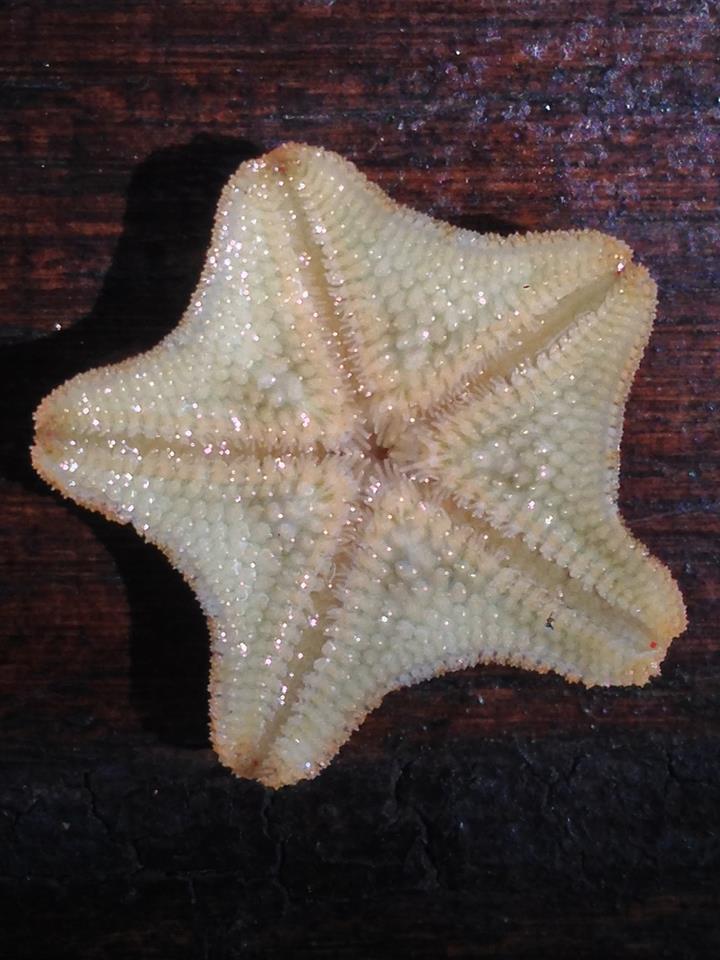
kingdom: Animalia
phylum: Echinodermata
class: Asteroidea
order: Valvatida
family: Asterinidae
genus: Asterina
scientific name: Asterina gibbosa
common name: Cushion star
